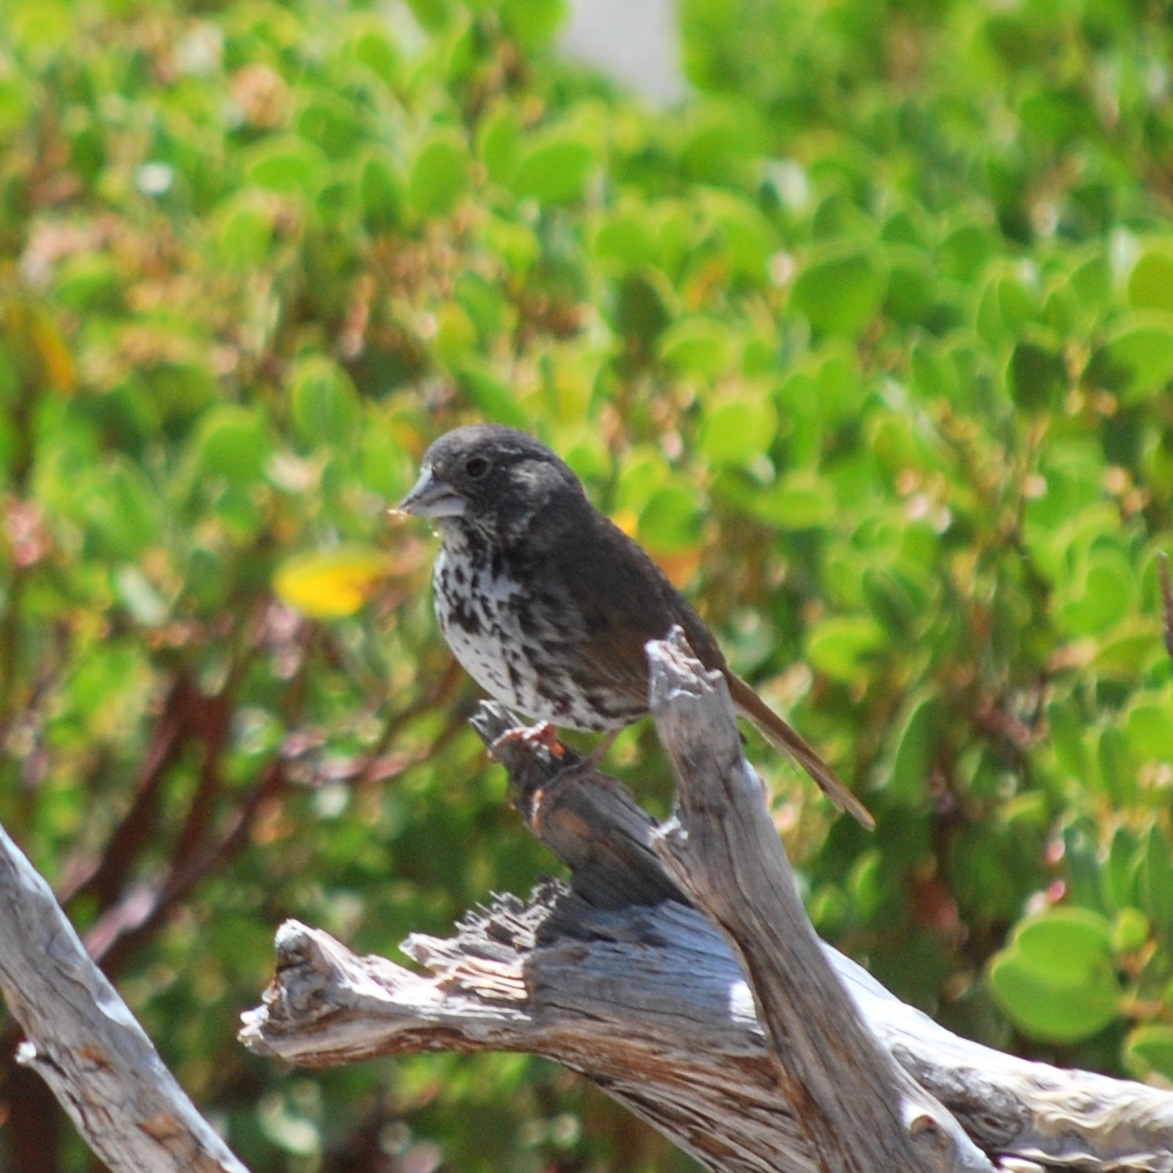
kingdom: Animalia
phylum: Chordata
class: Aves
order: Passeriformes
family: Passerellidae
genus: Passerella
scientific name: Passerella megarhyncha
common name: Thick-billed fox sparrow
